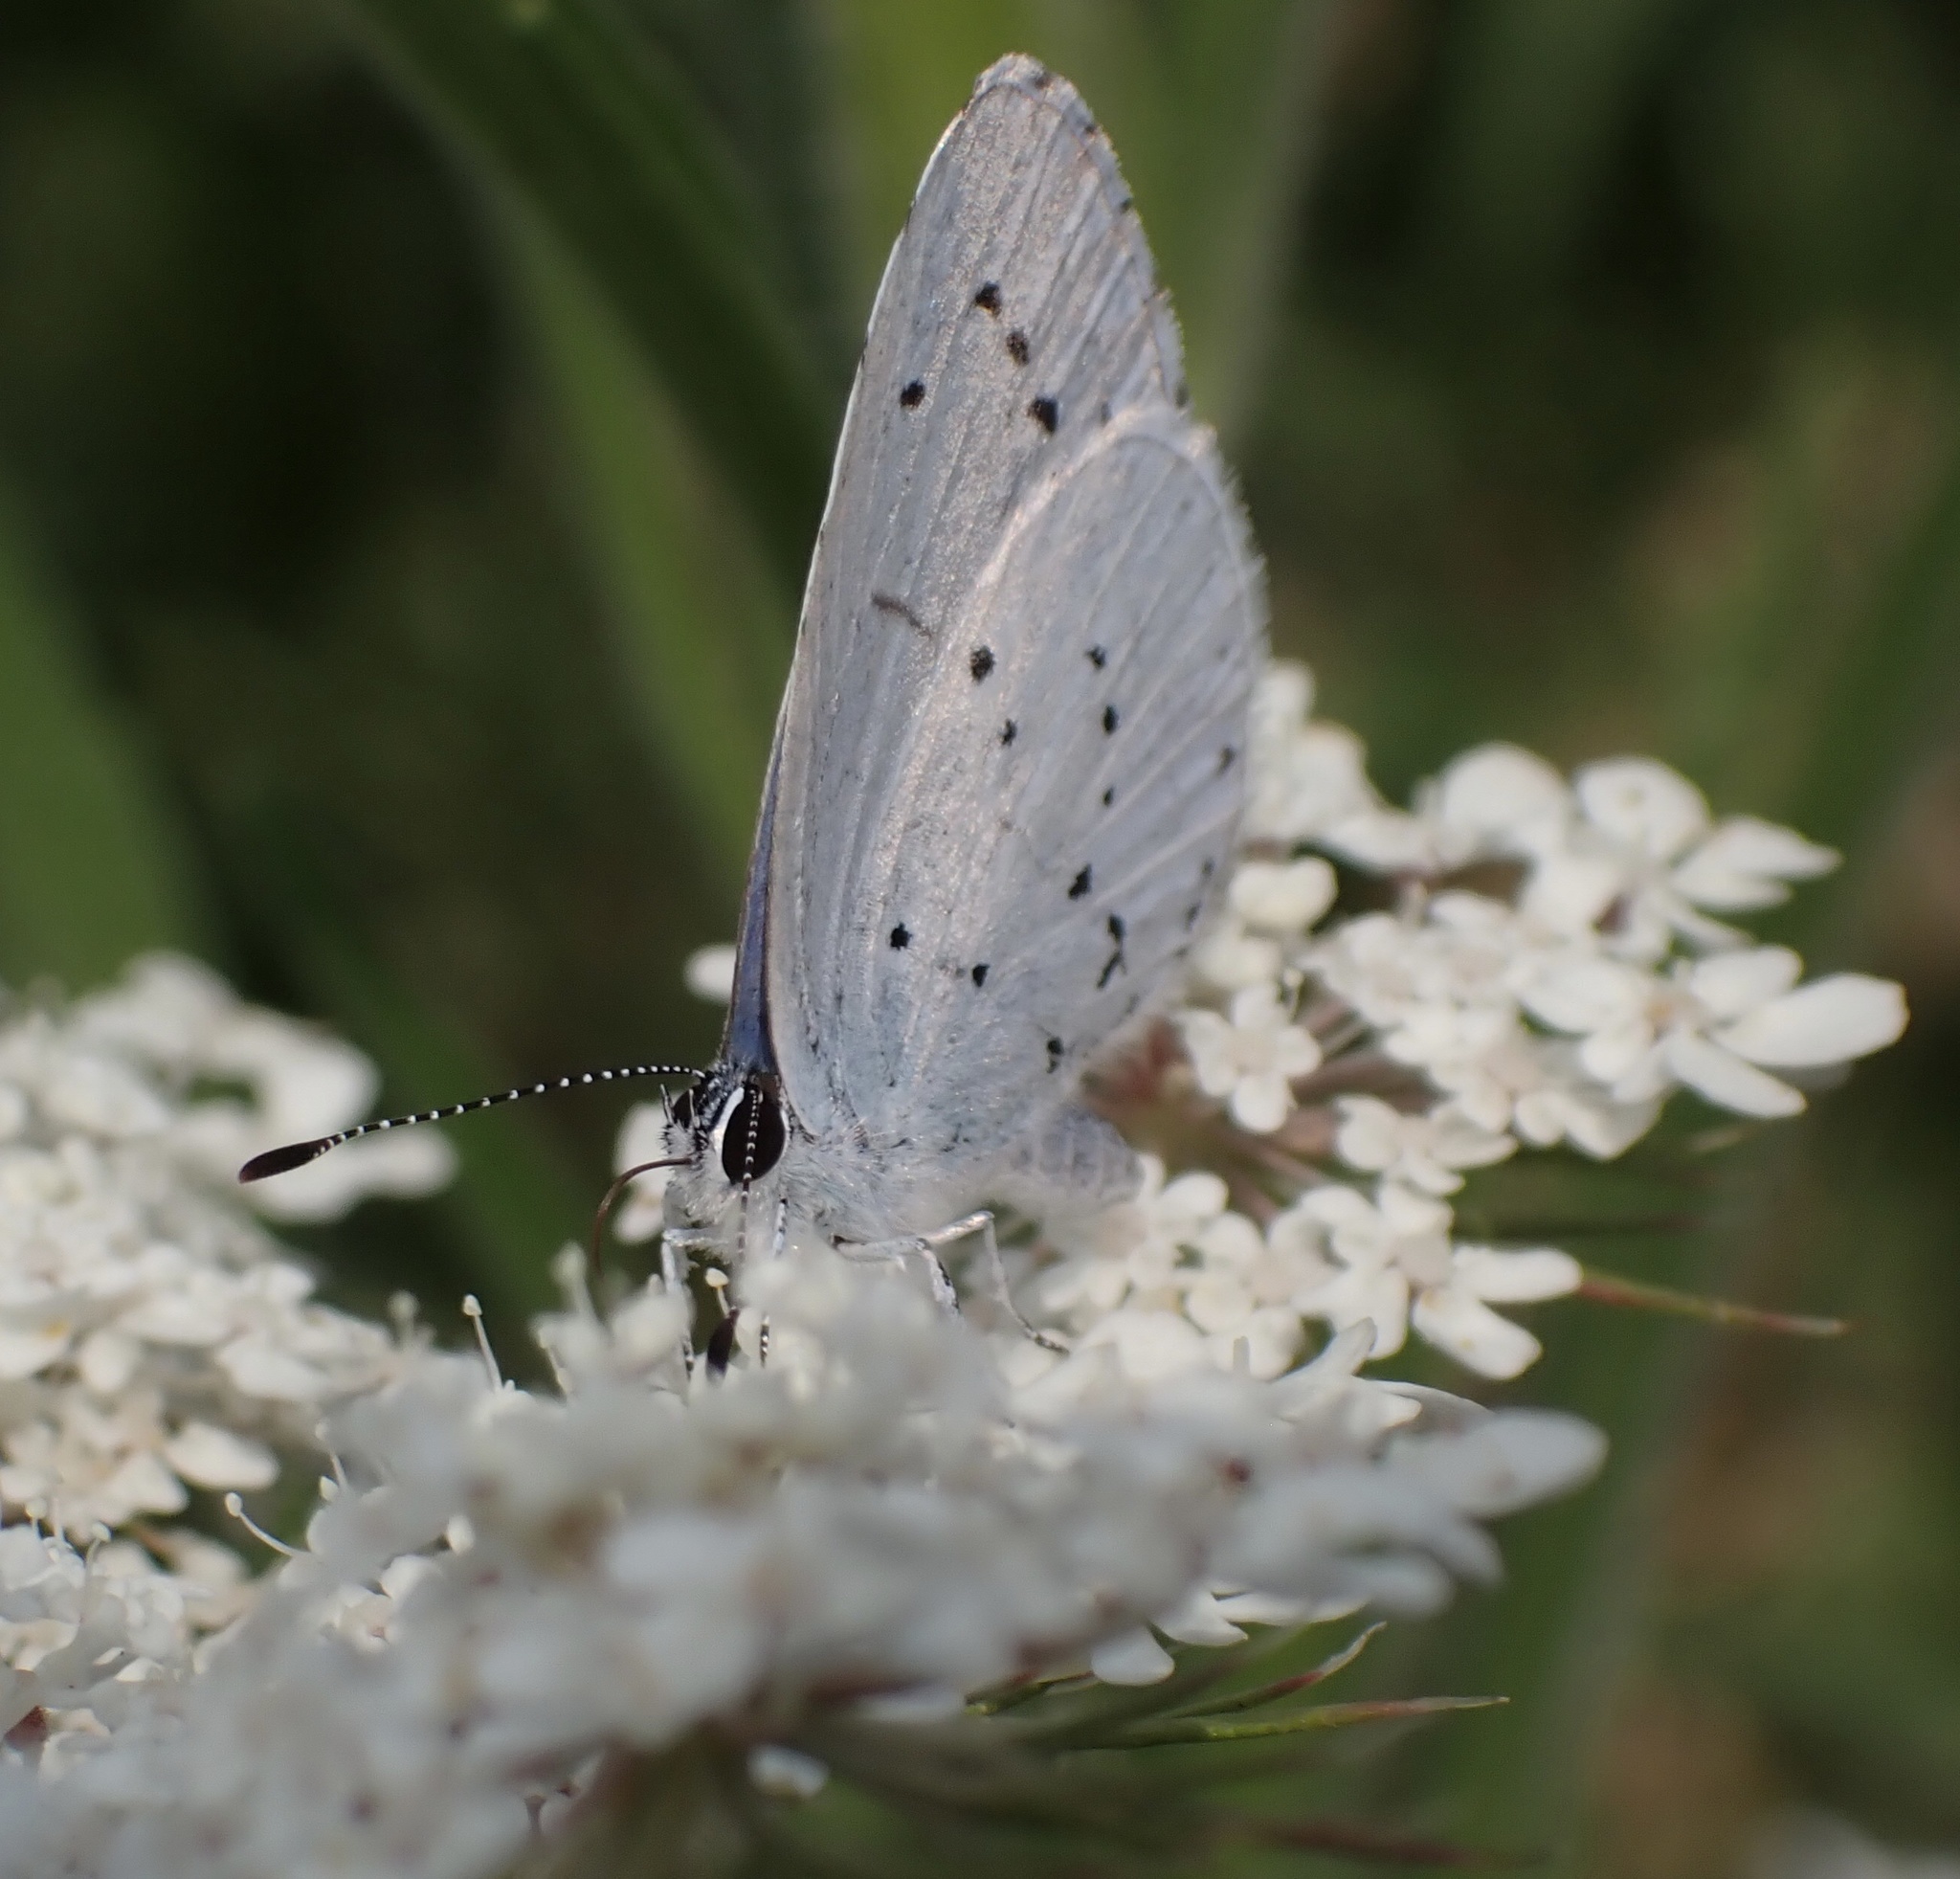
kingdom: Animalia
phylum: Arthropoda
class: Insecta
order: Lepidoptera
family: Lycaenidae
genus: Celastrina
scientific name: Celastrina argiolus
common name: Holly blue
